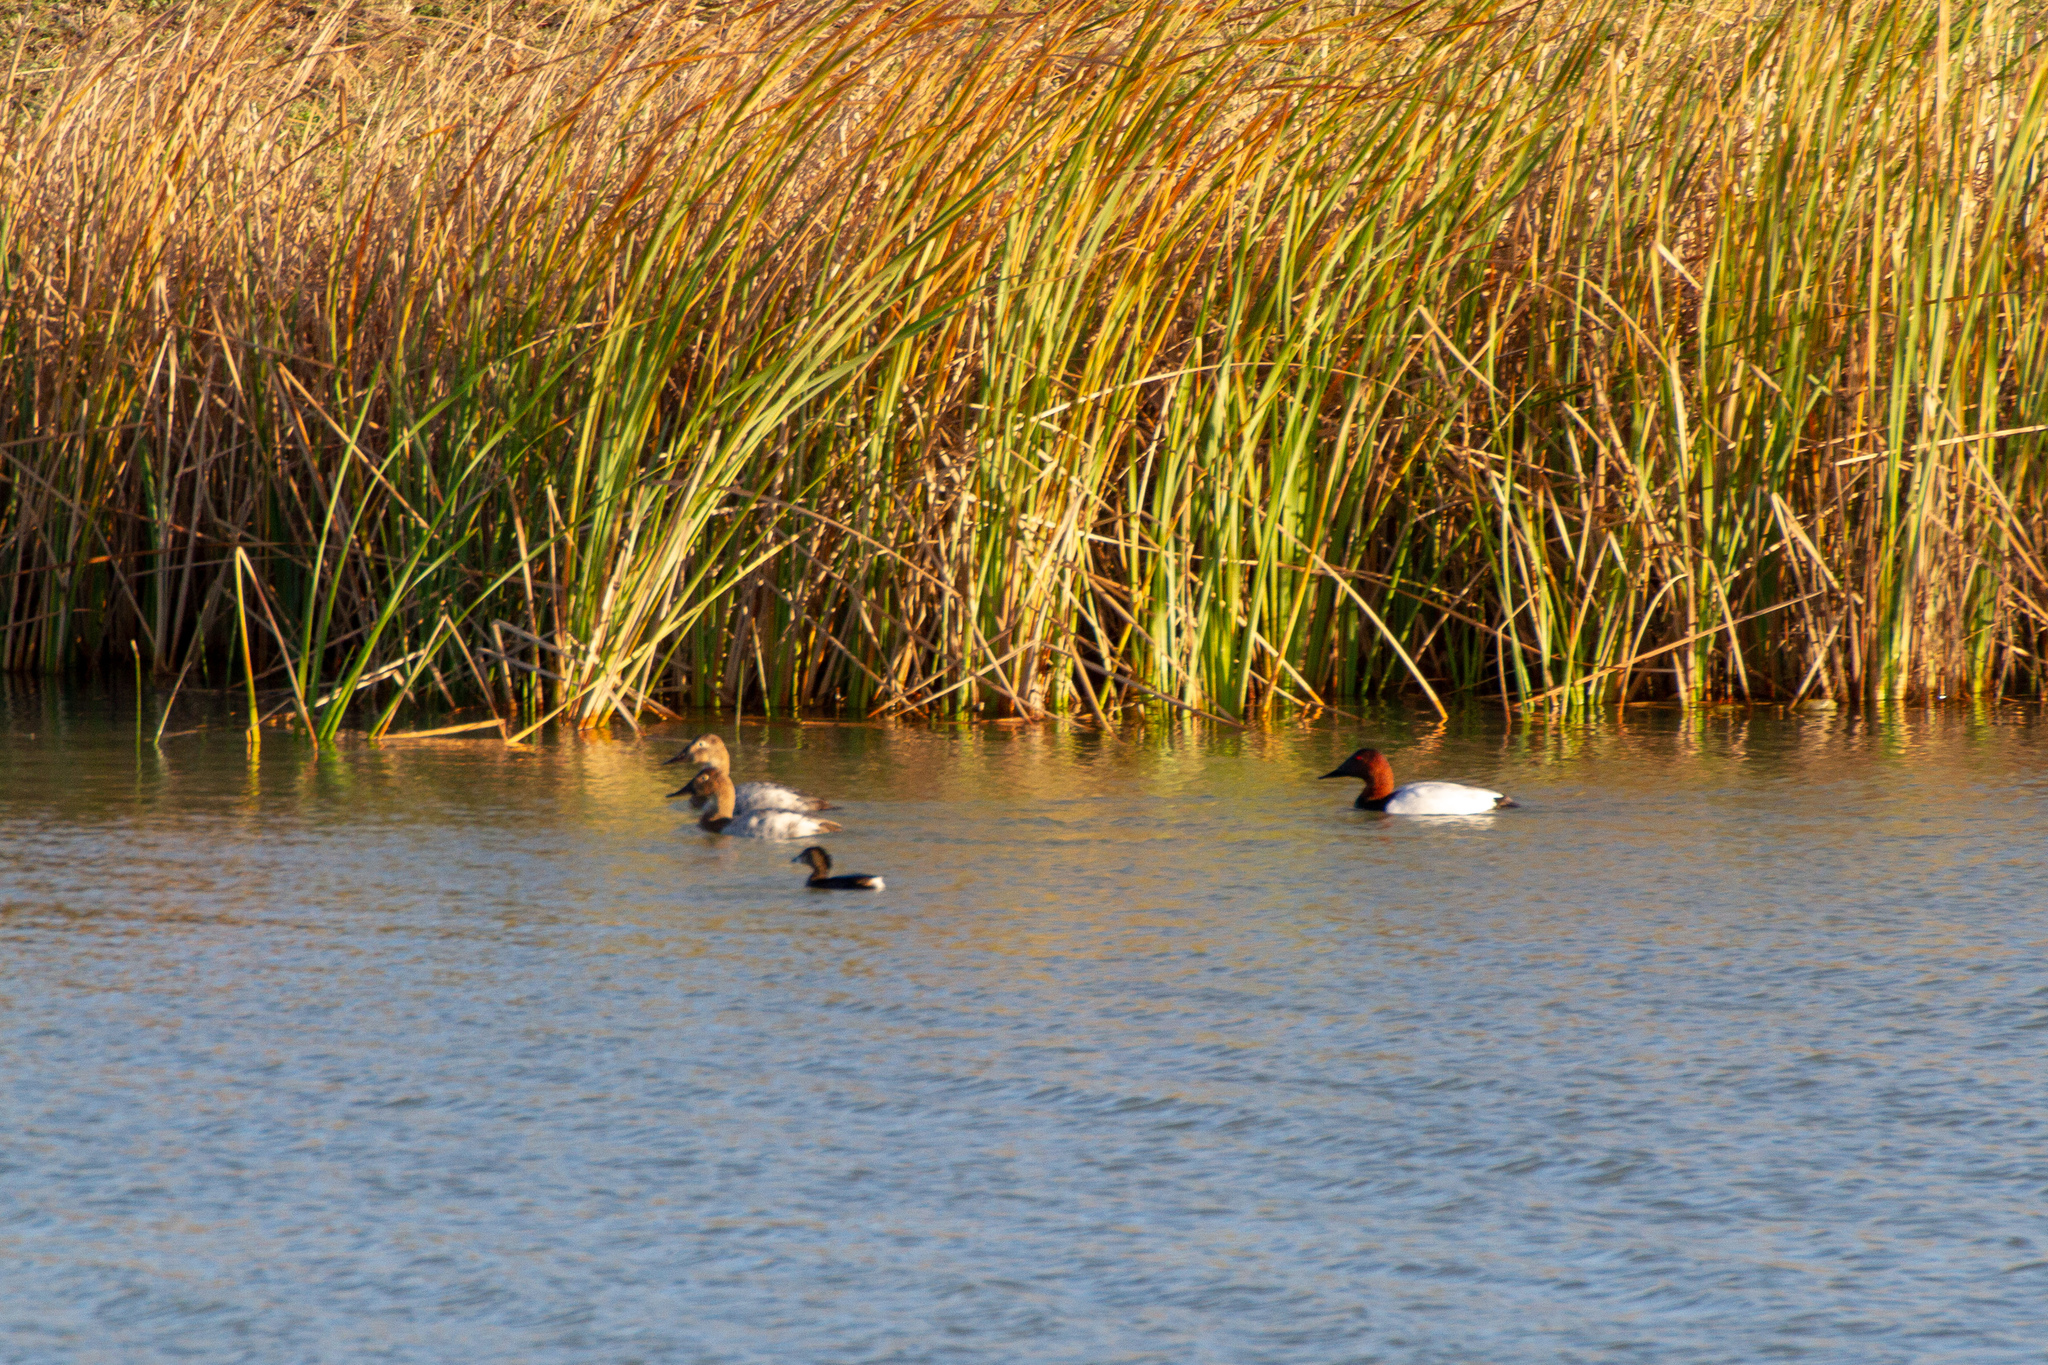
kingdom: Animalia
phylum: Chordata
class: Aves
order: Anseriformes
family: Anatidae
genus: Aythya
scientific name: Aythya valisineria
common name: Canvasback
